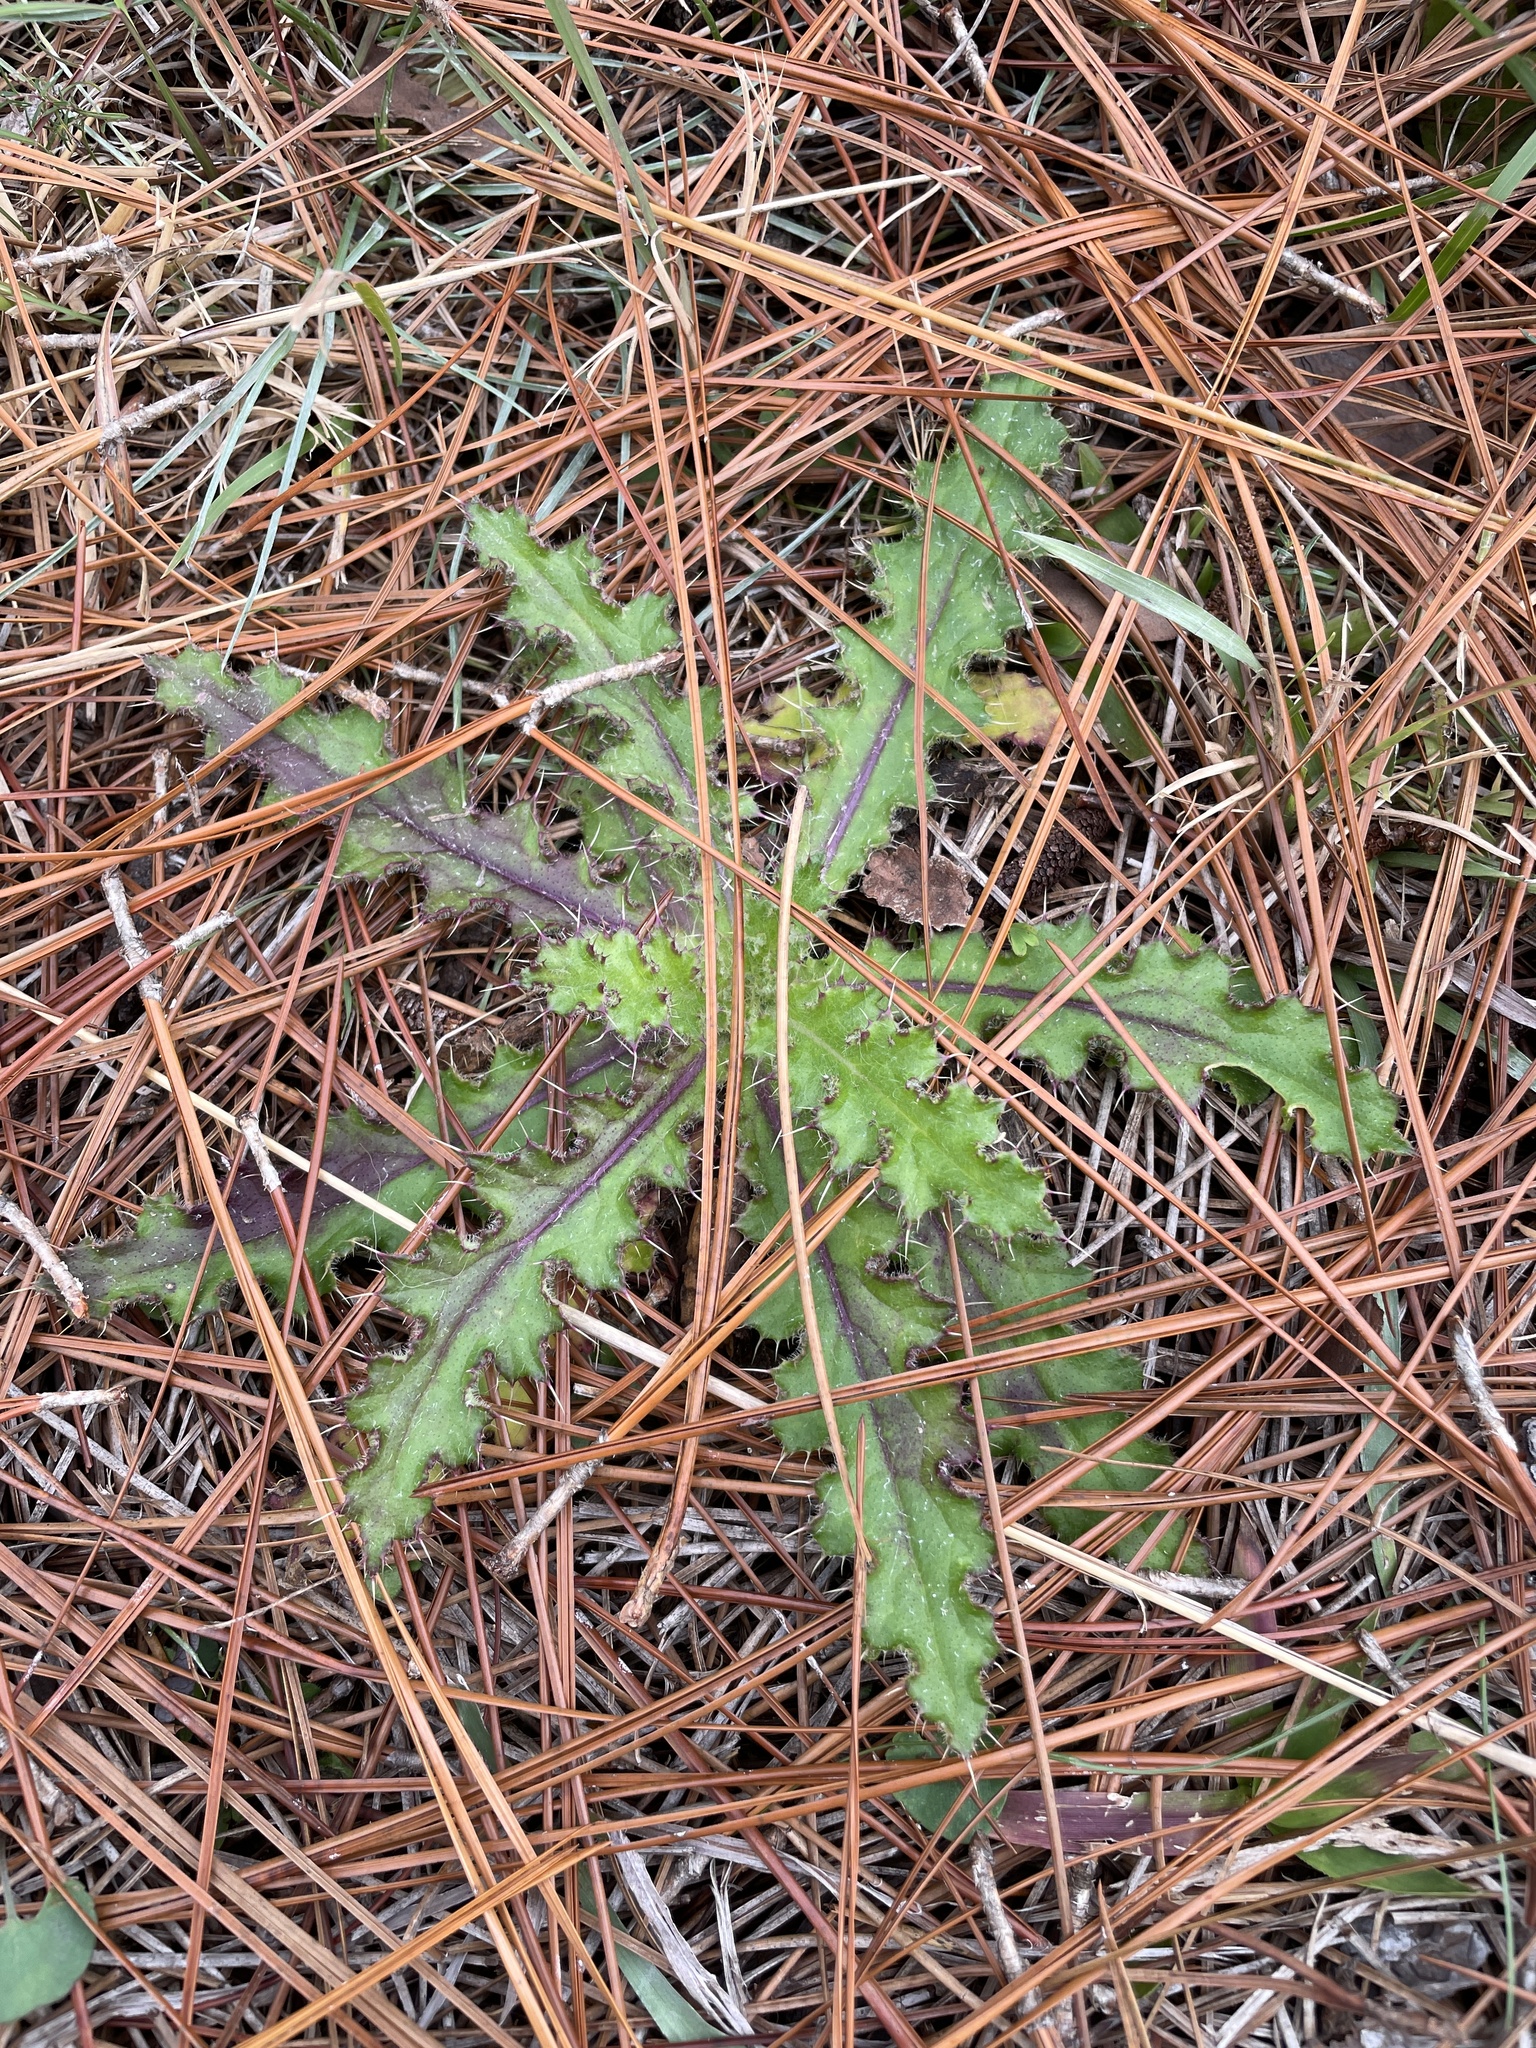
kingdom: Plantae
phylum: Tracheophyta
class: Magnoliopsida
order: Asterales
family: Asteraceae
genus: Cirsium
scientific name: Cirsium horridulum
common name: Bristly thistle
